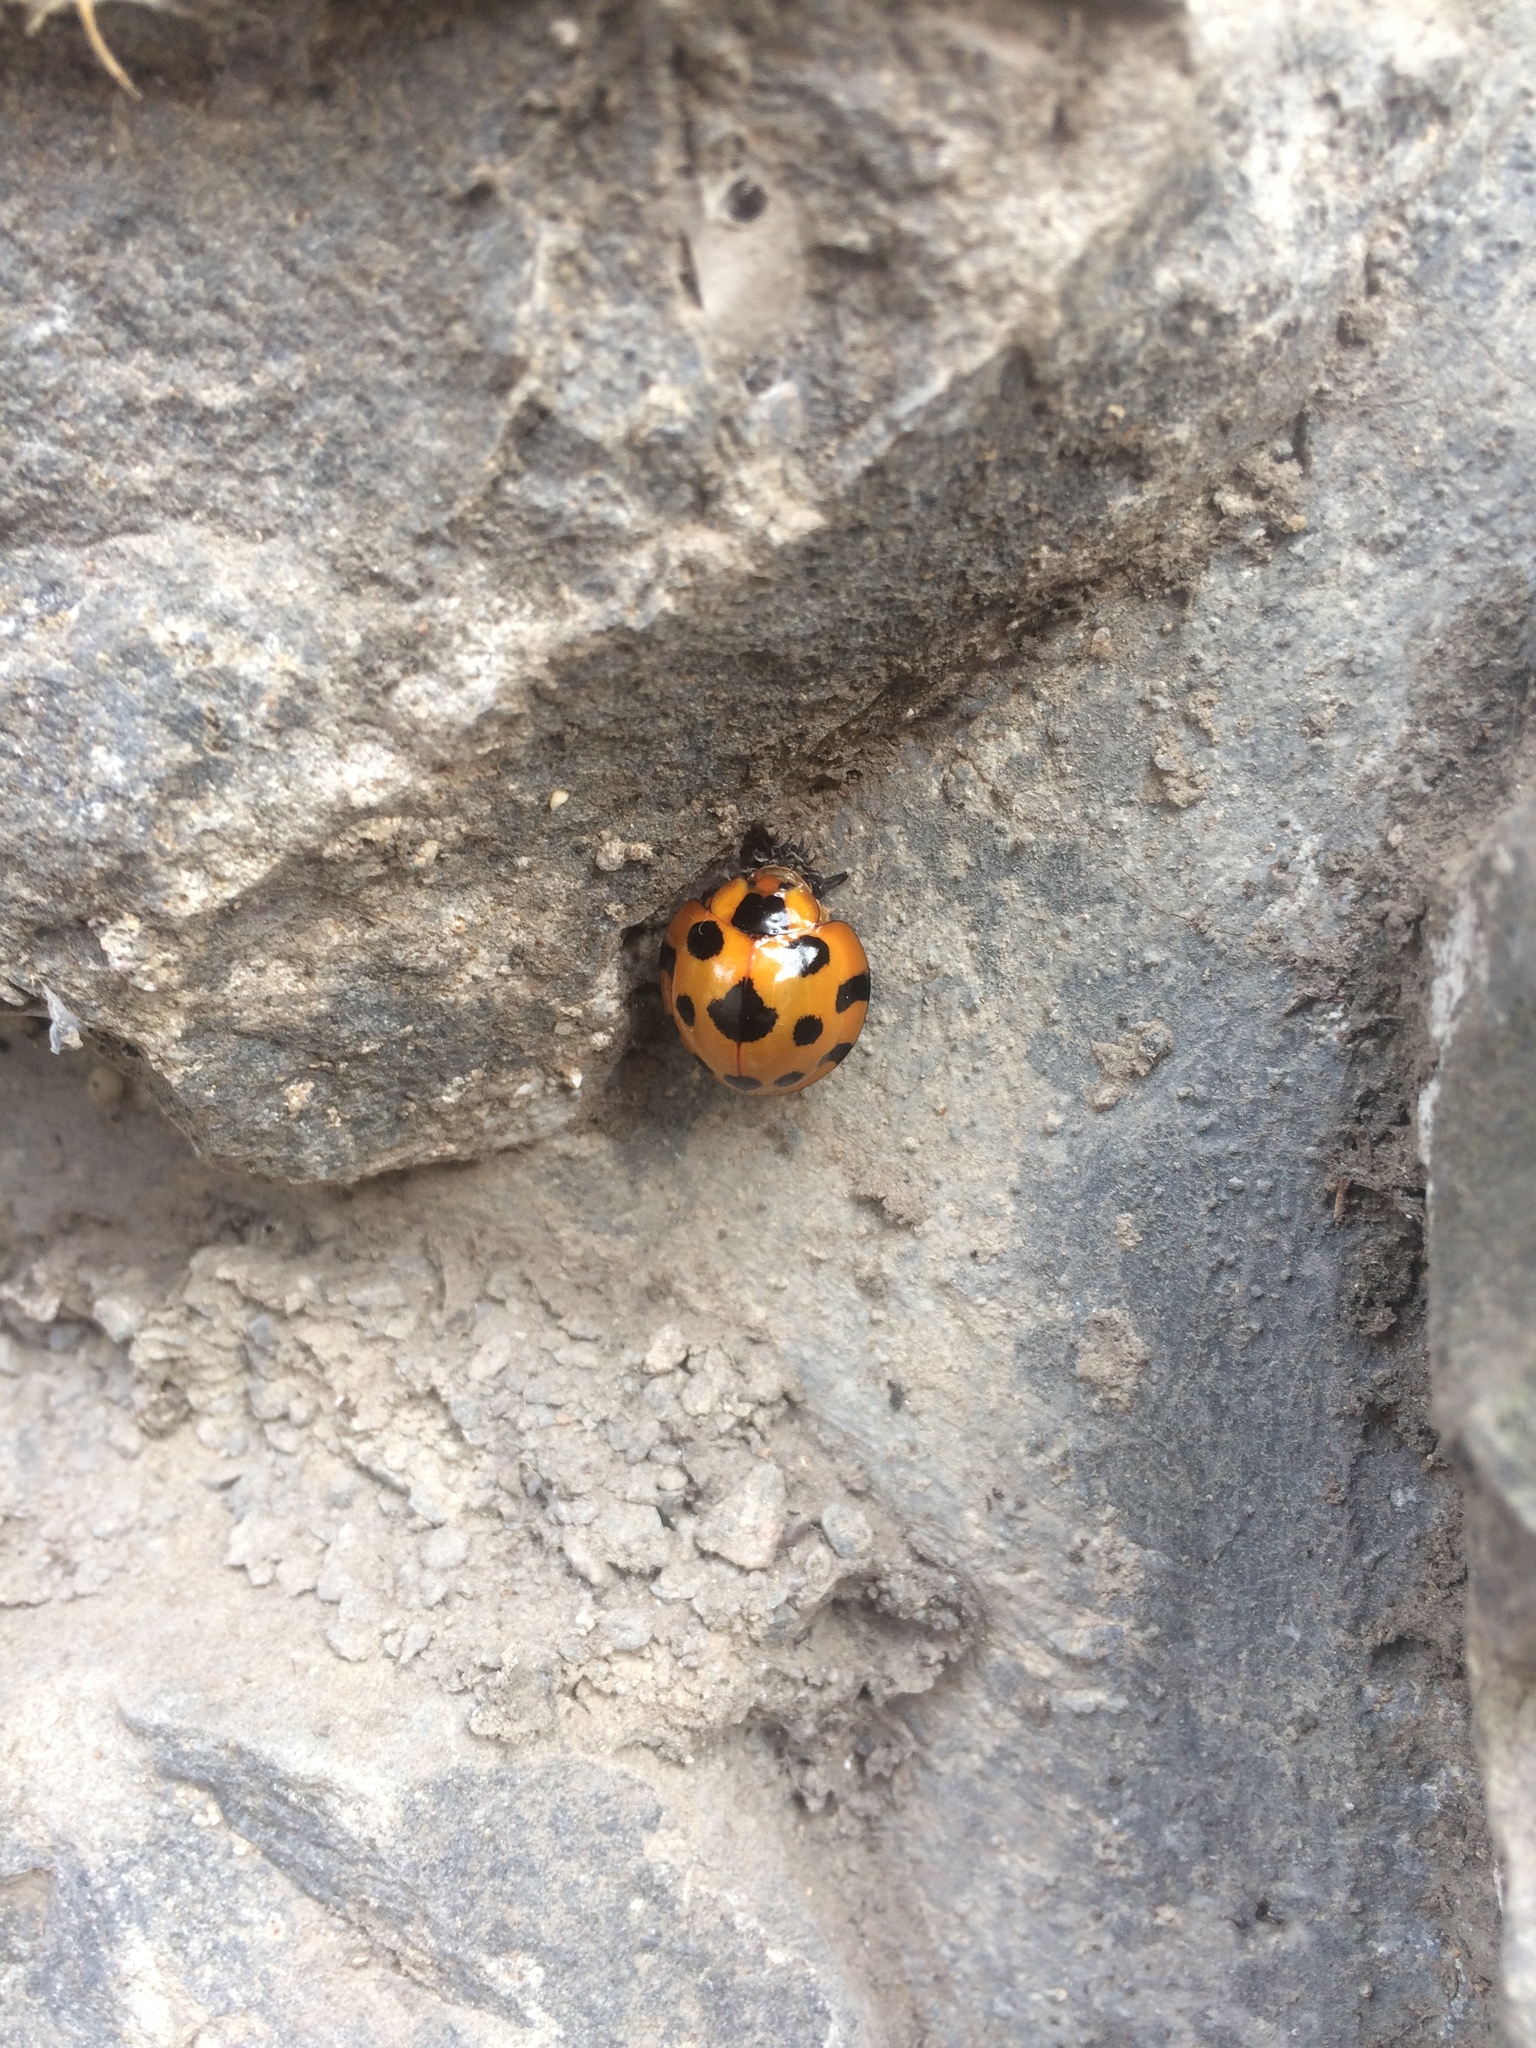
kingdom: Animalia
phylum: Arthropoda
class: Insecta
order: Coleoptera
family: Coccinellidae
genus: Synonycha
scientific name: Synonycha grandis
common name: Lady beetle
